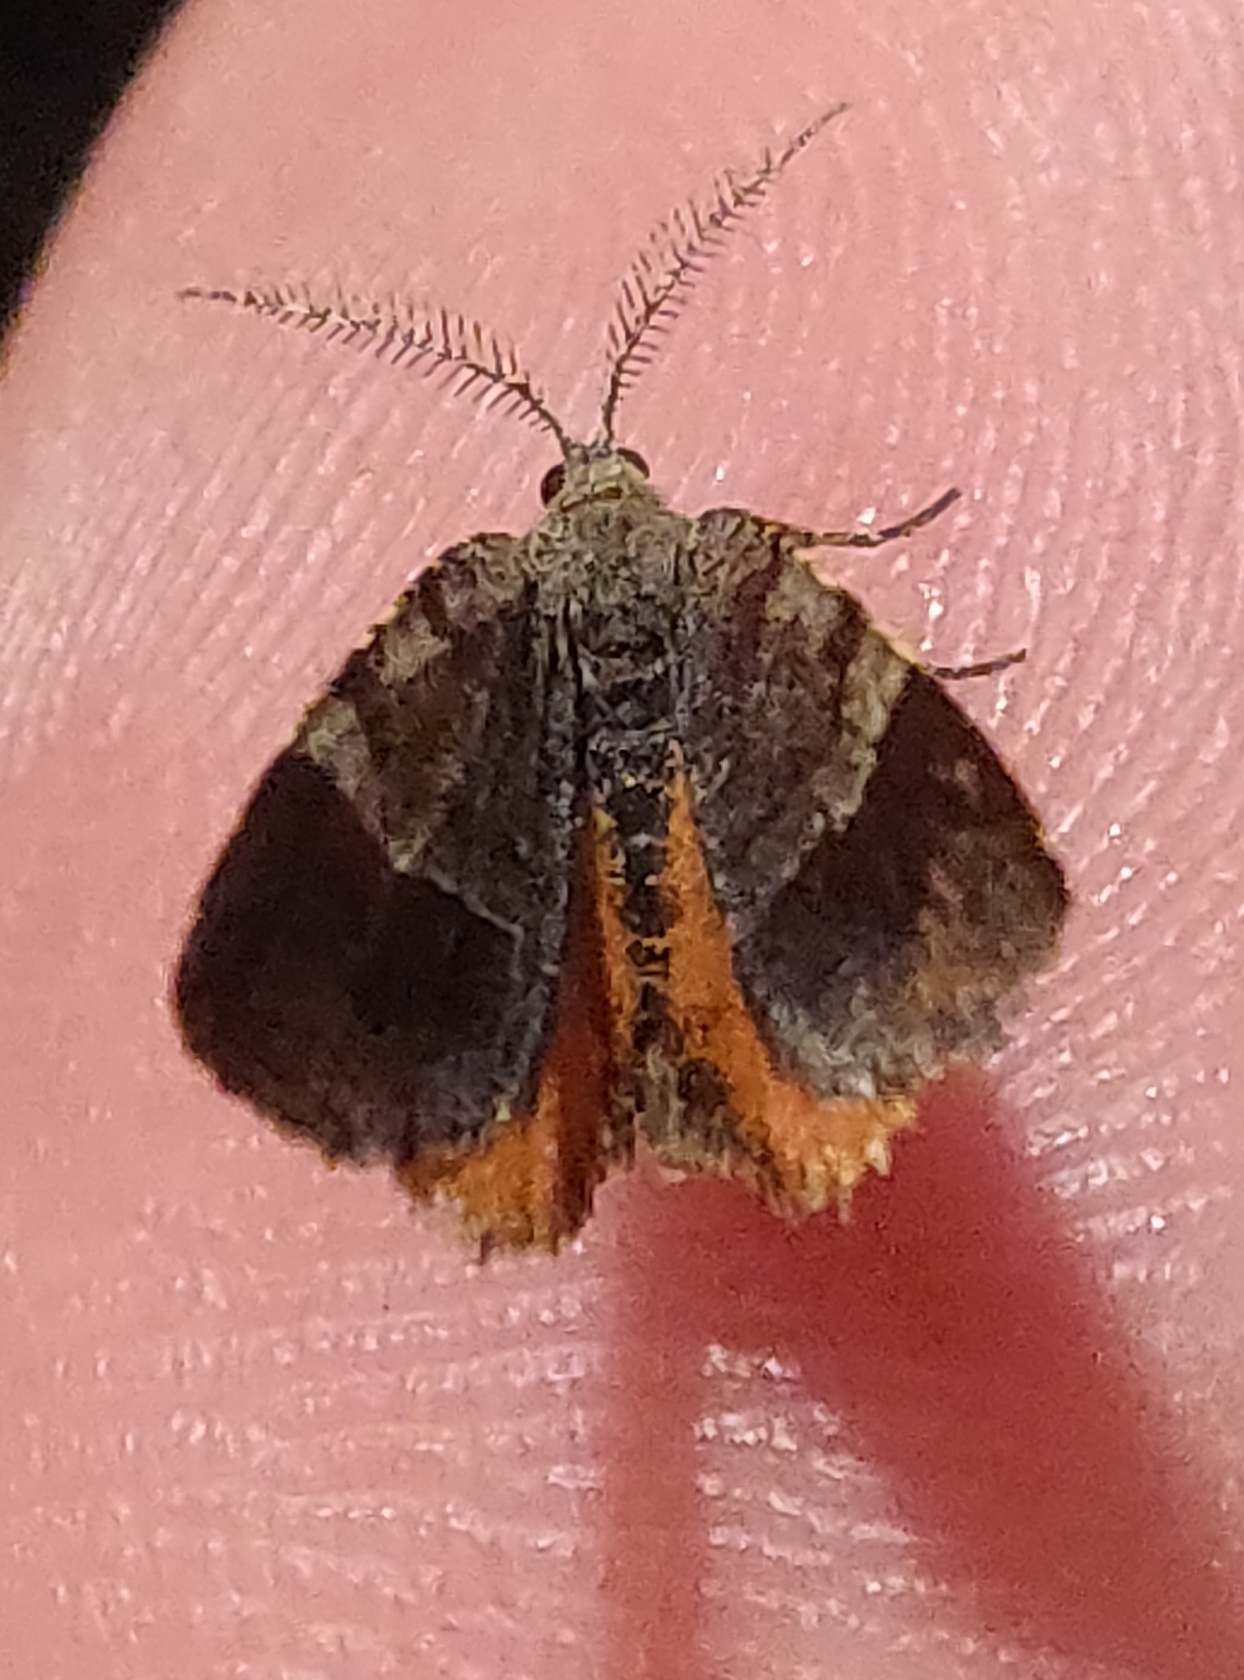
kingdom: Animalia
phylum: Arthropoda
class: Insecta
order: Lepidoptera
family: Geometridae
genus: Mellilla
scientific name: Mellilla xanthometata
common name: Orange wing moth
